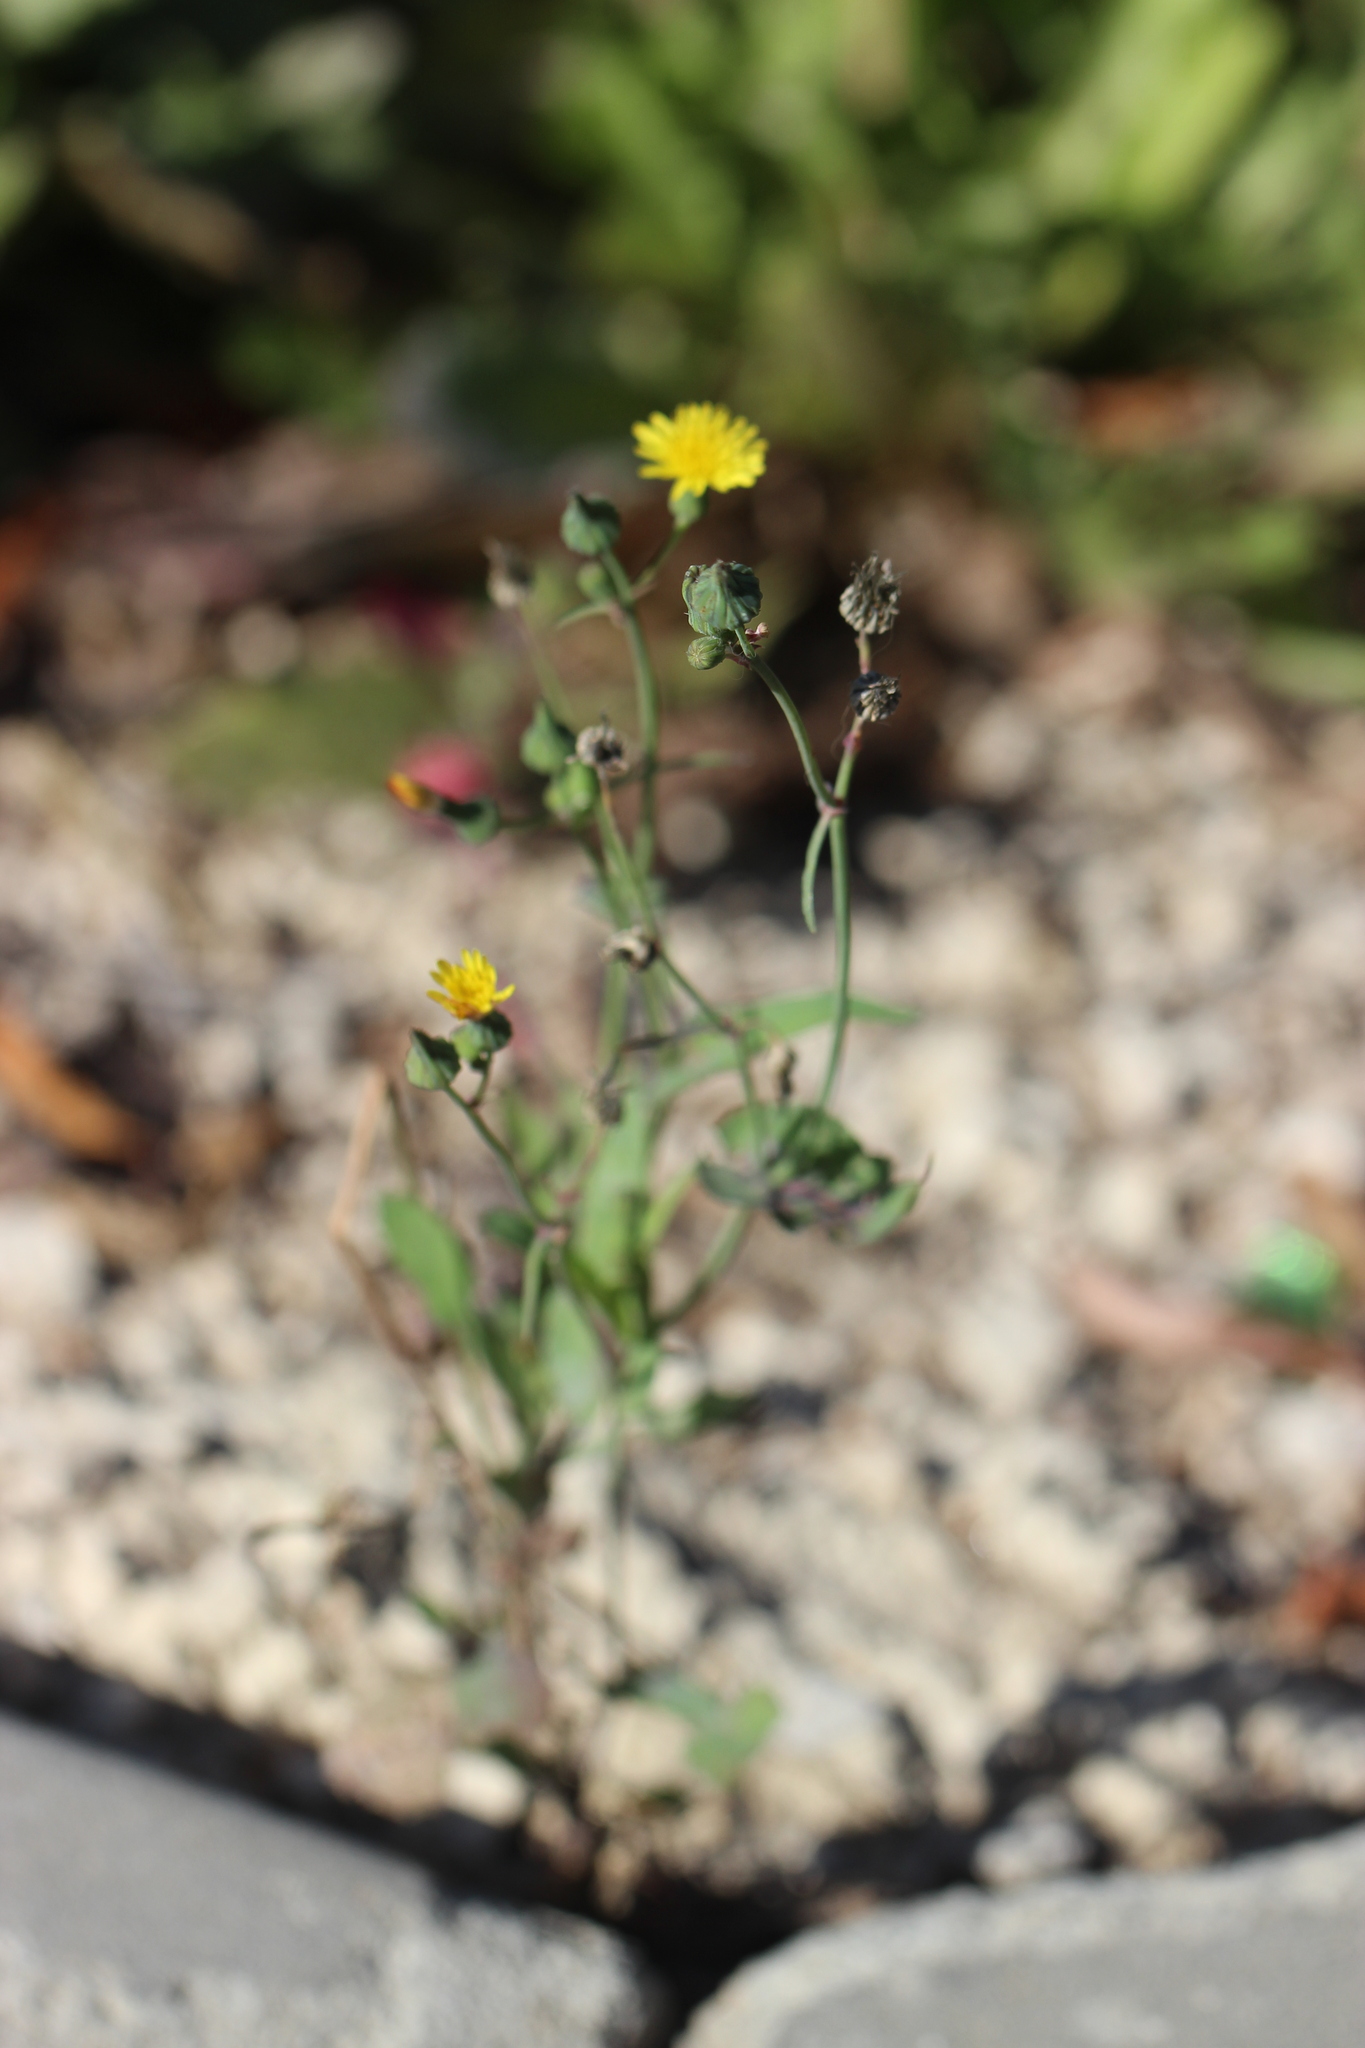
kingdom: Plantae
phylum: Tracheophyta
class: Magnoliopsida
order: Asterales
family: Asteraceae
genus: Sonchus
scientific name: Sonchus oleraceus
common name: Common sowthistle
